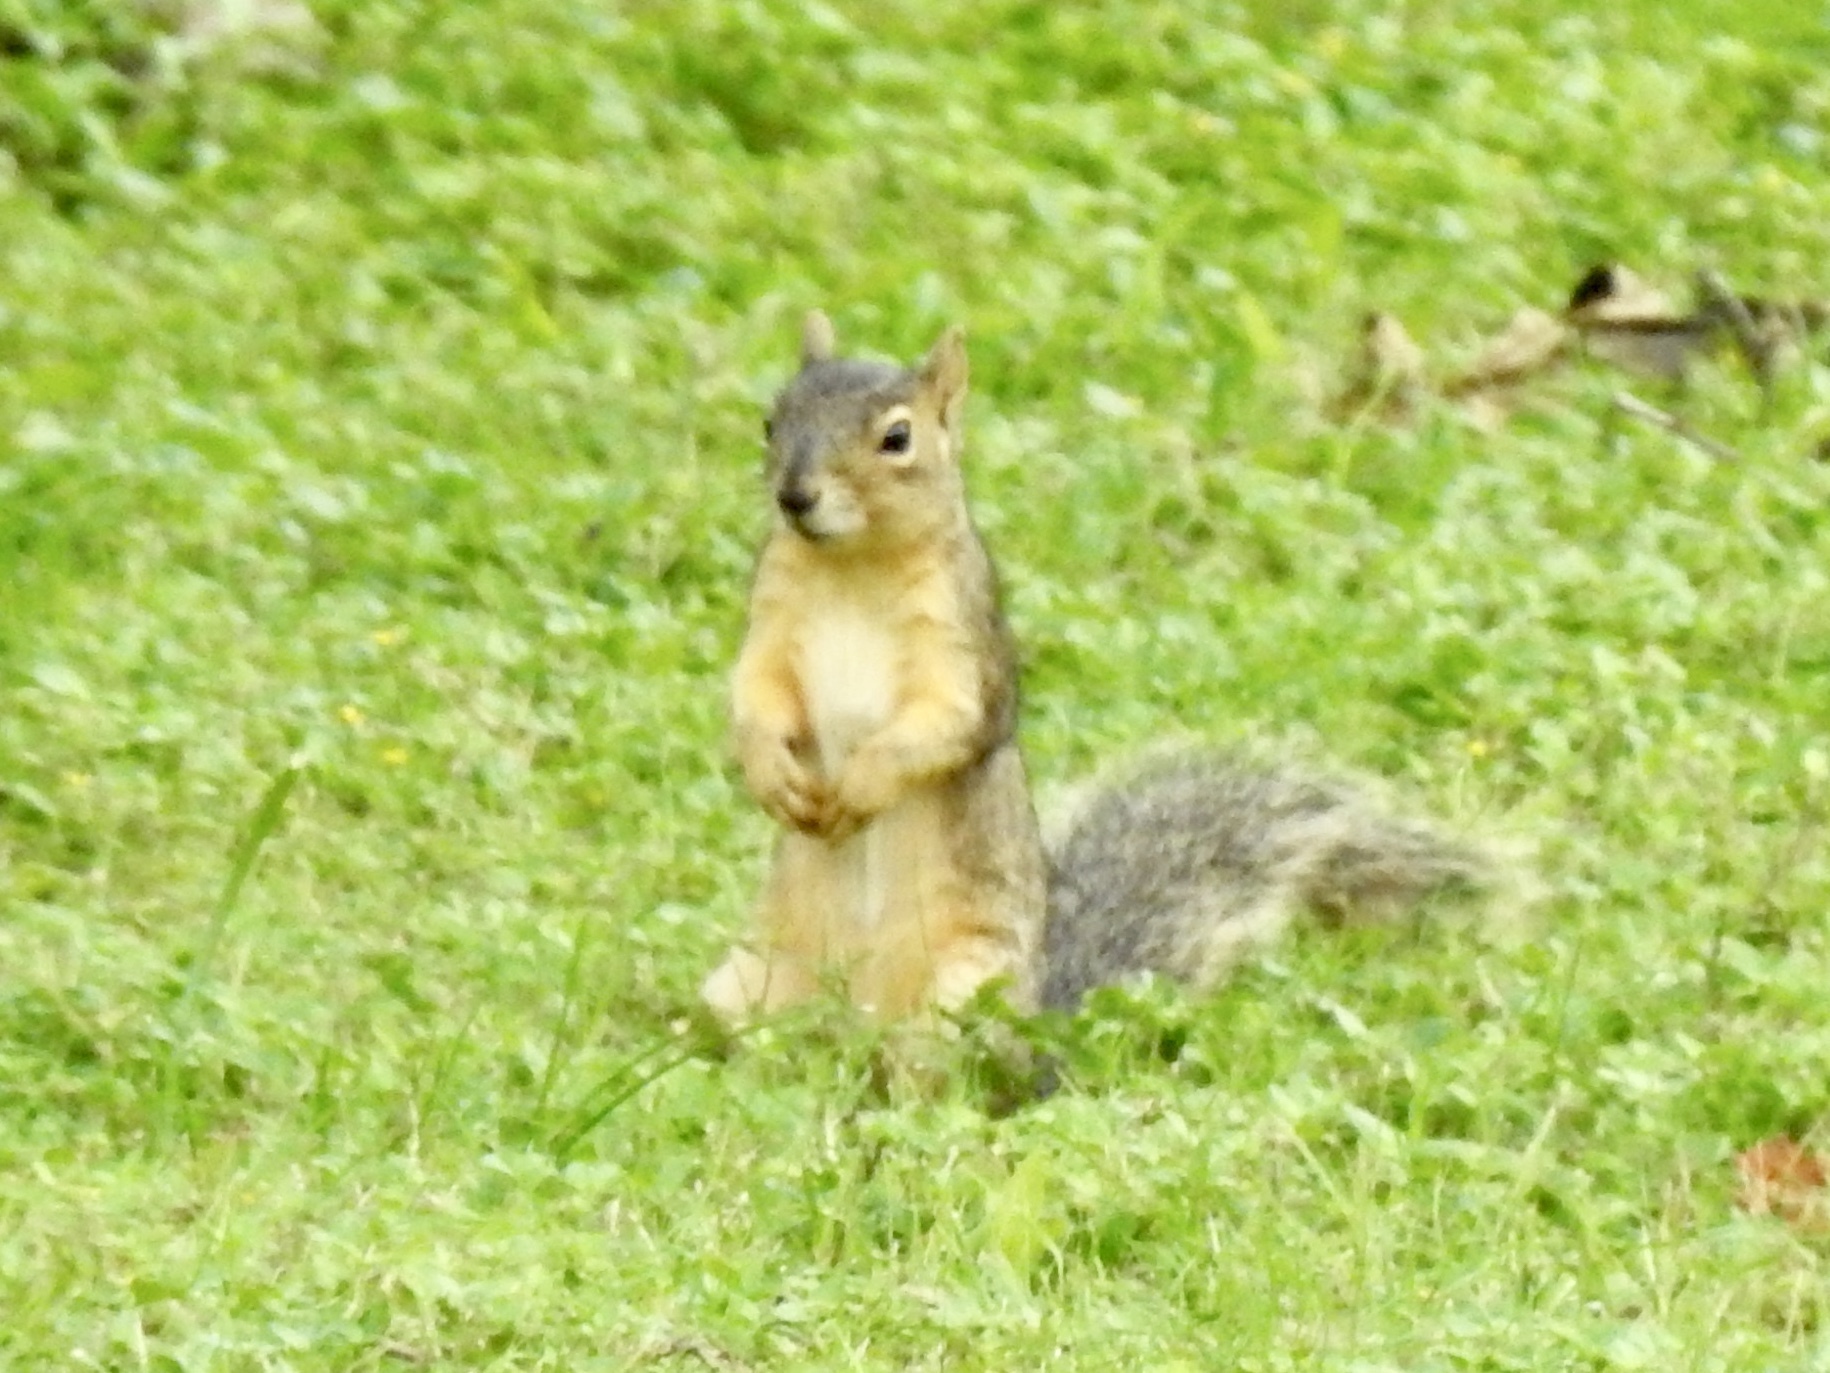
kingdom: Animalia
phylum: Chordata
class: Mammalia
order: Rodentia
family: Sciuridae
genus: Sciurus
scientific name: Sciurus niger
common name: Fox squirrel
